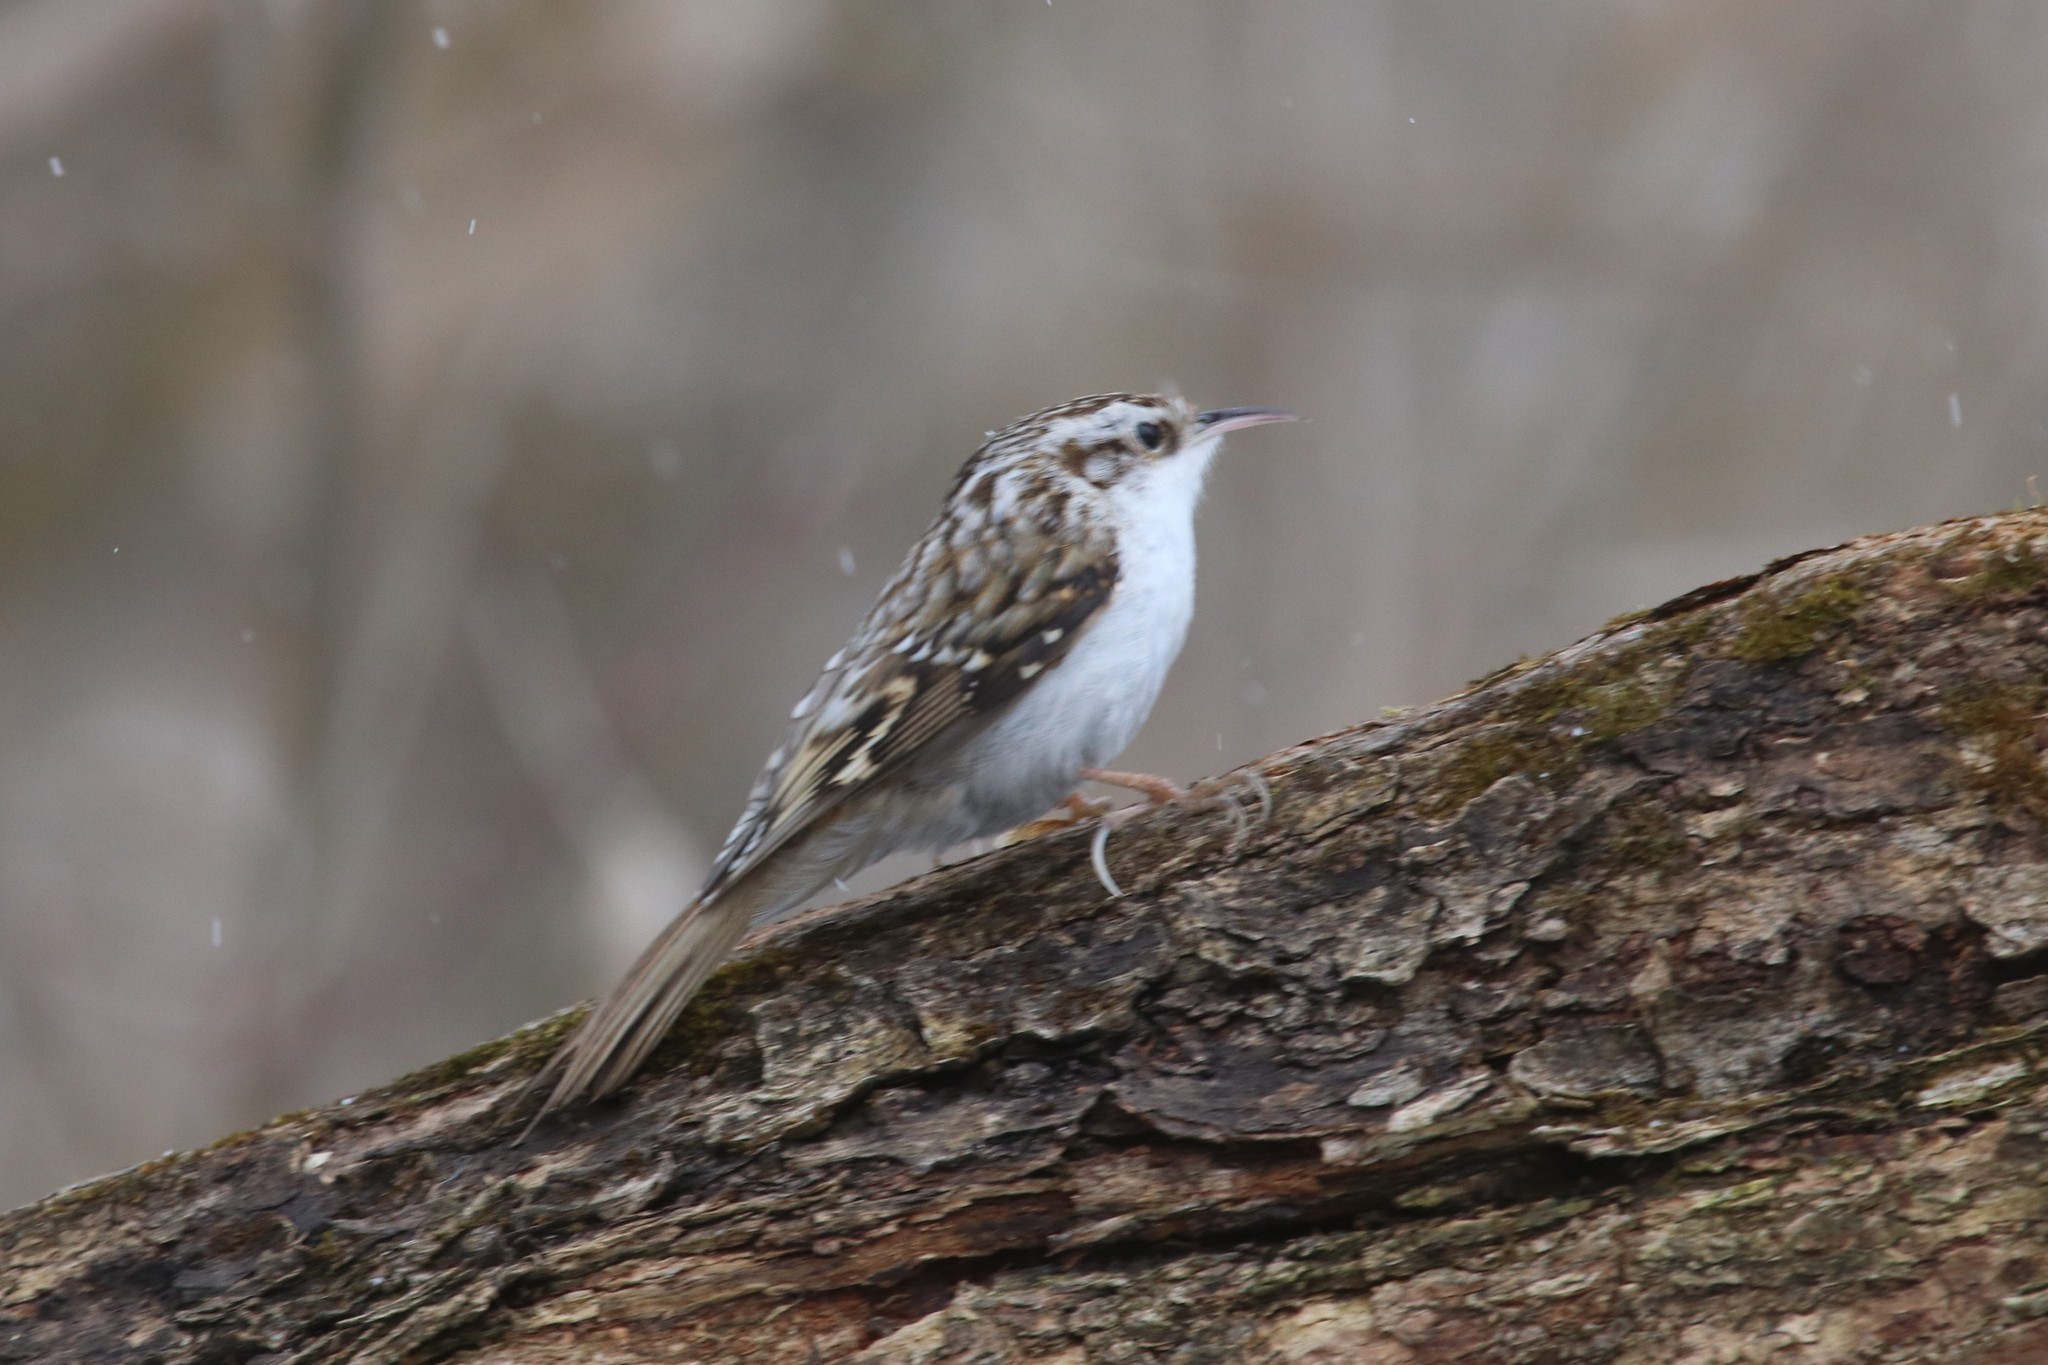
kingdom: Animalia
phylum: Chordata
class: Aves
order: Passeriformes
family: Certhiidae
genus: Certhia
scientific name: Certhia familiaris
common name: Eurasian treecreeper
